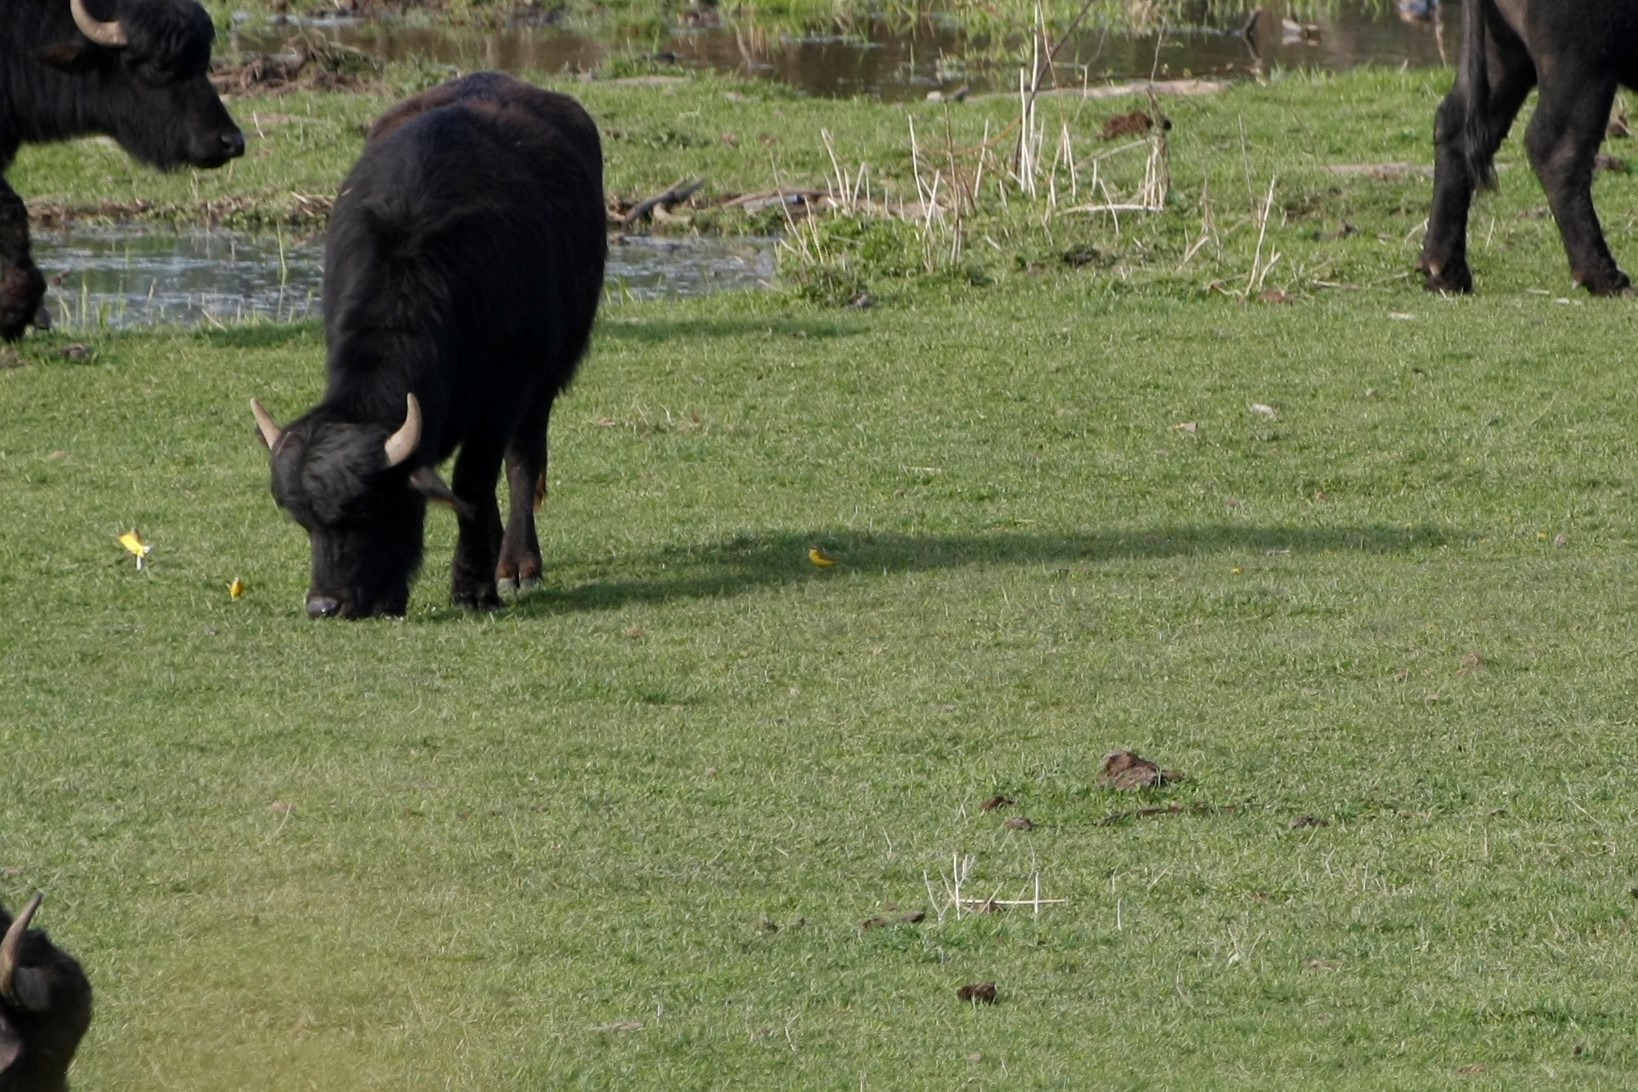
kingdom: Animalia
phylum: Chordata
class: Aves
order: Passeriformes
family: Motacillidae
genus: Motacilla
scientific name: Motacilla flava
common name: Western yellow wagtail
